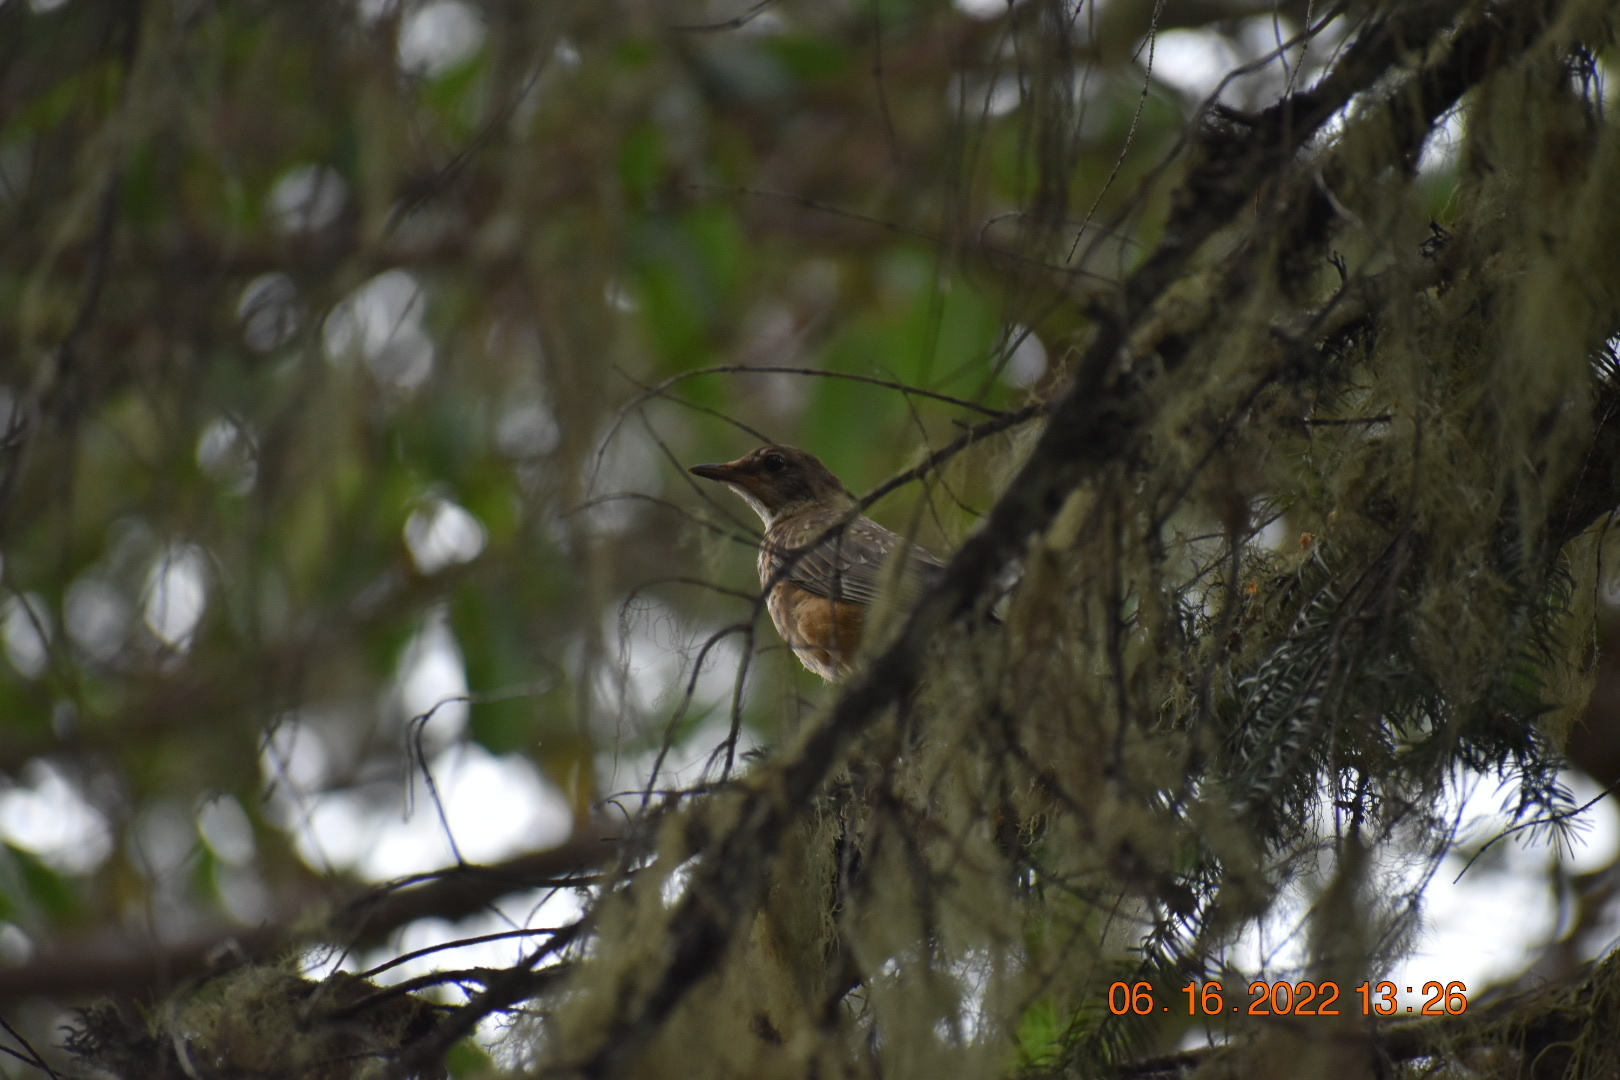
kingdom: Animalia
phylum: Chordata
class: Aves
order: Passeriformes
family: Turdidae
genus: Turdus
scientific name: Turdus migratorius
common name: American robin
